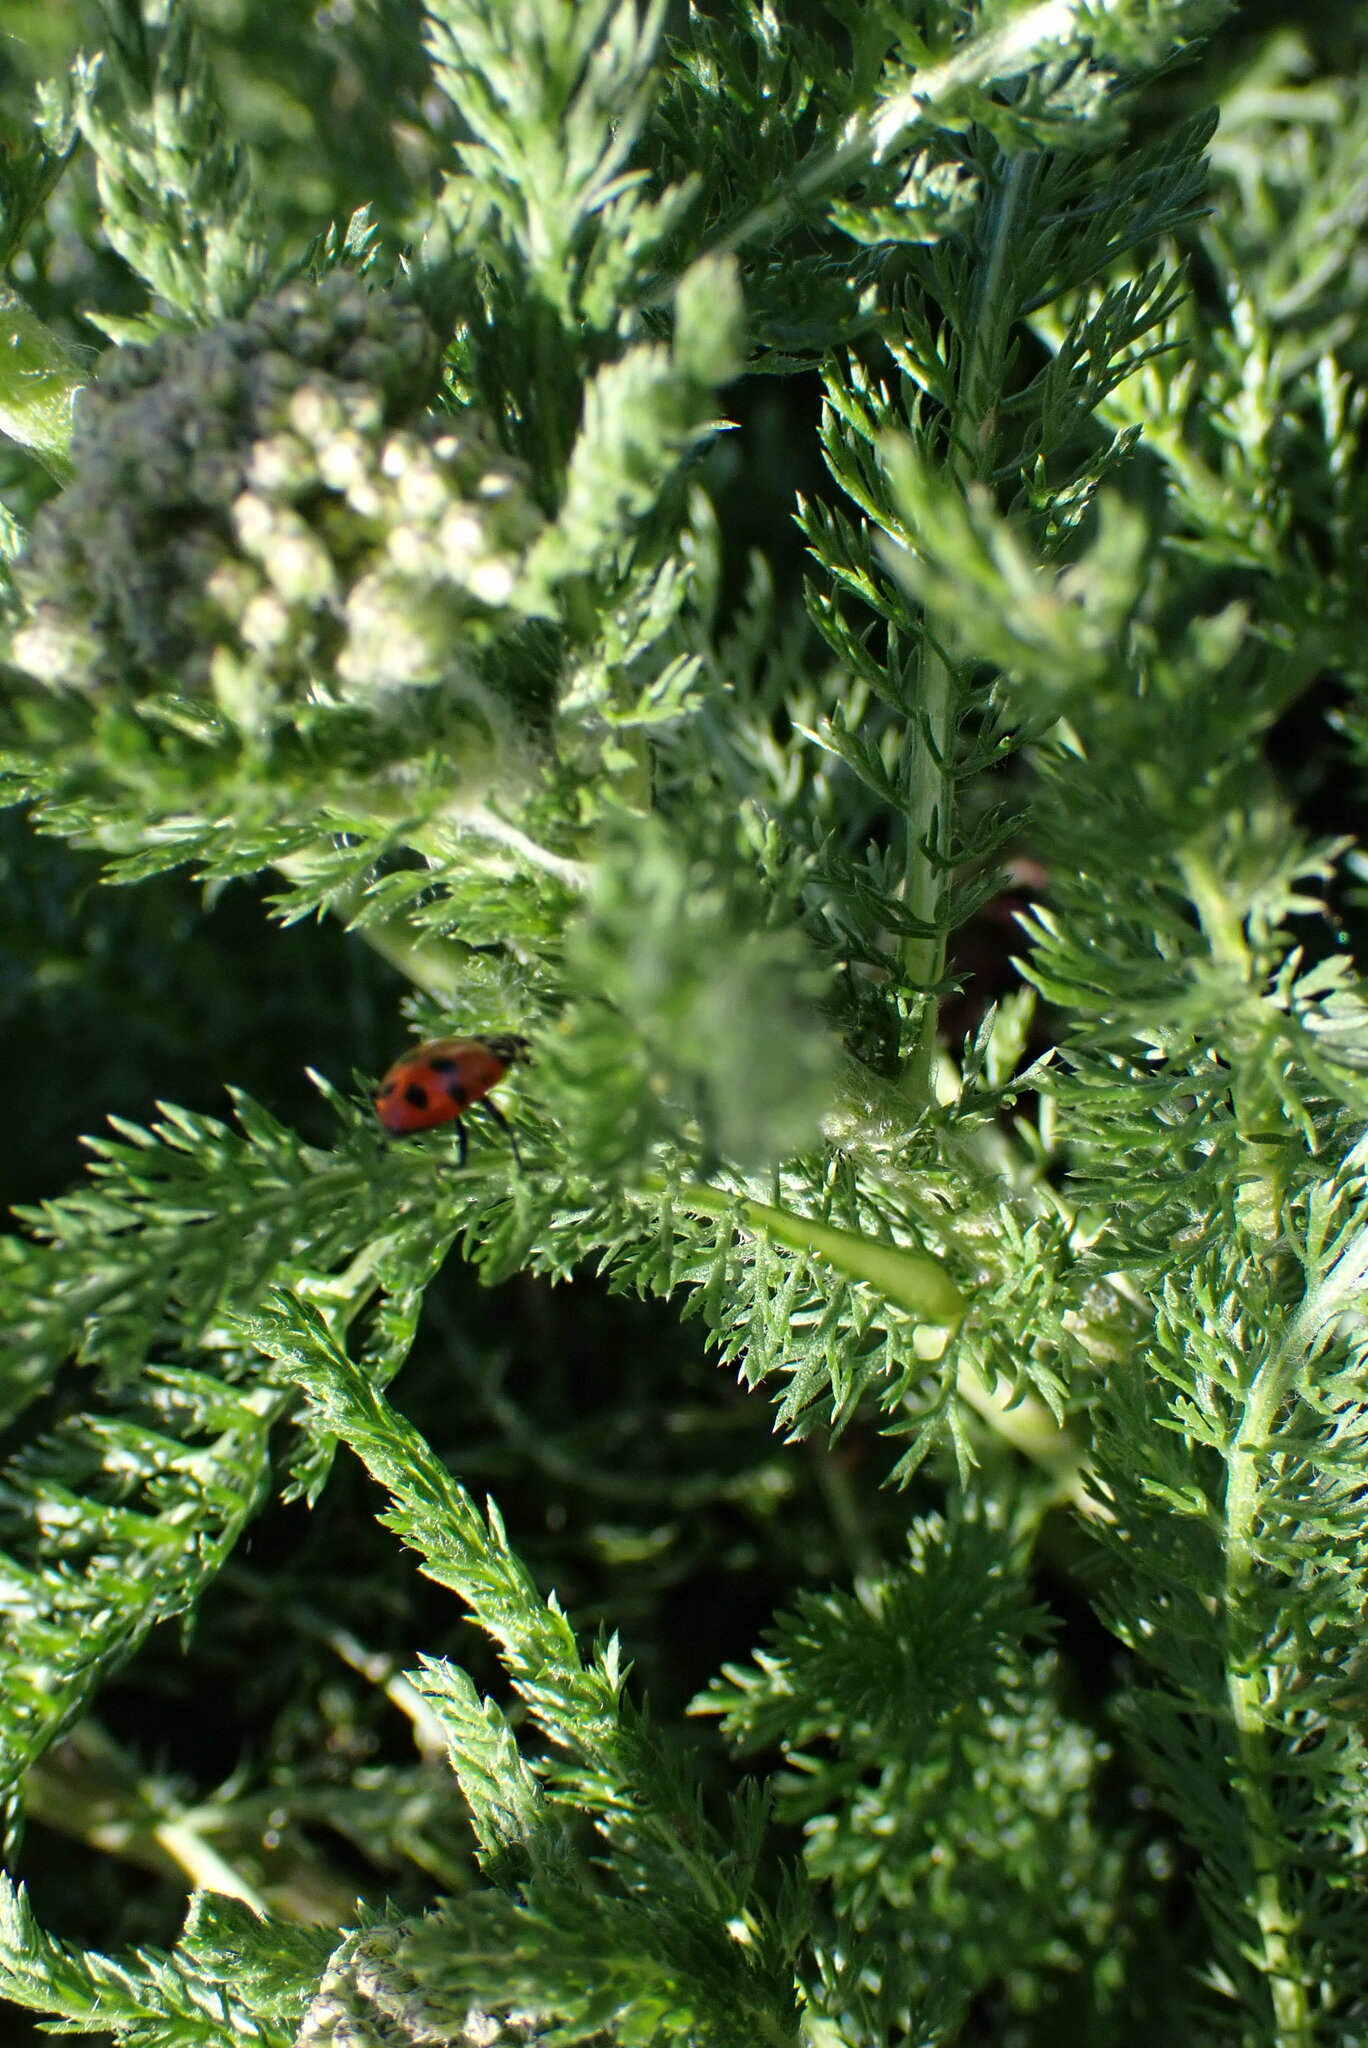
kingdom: Animalia
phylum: Arthropoda
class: Insecta
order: Coleoptera
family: Coccinellidae
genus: Hippodamia
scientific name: Hippodamia convergens
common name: Convergent lady beetle
